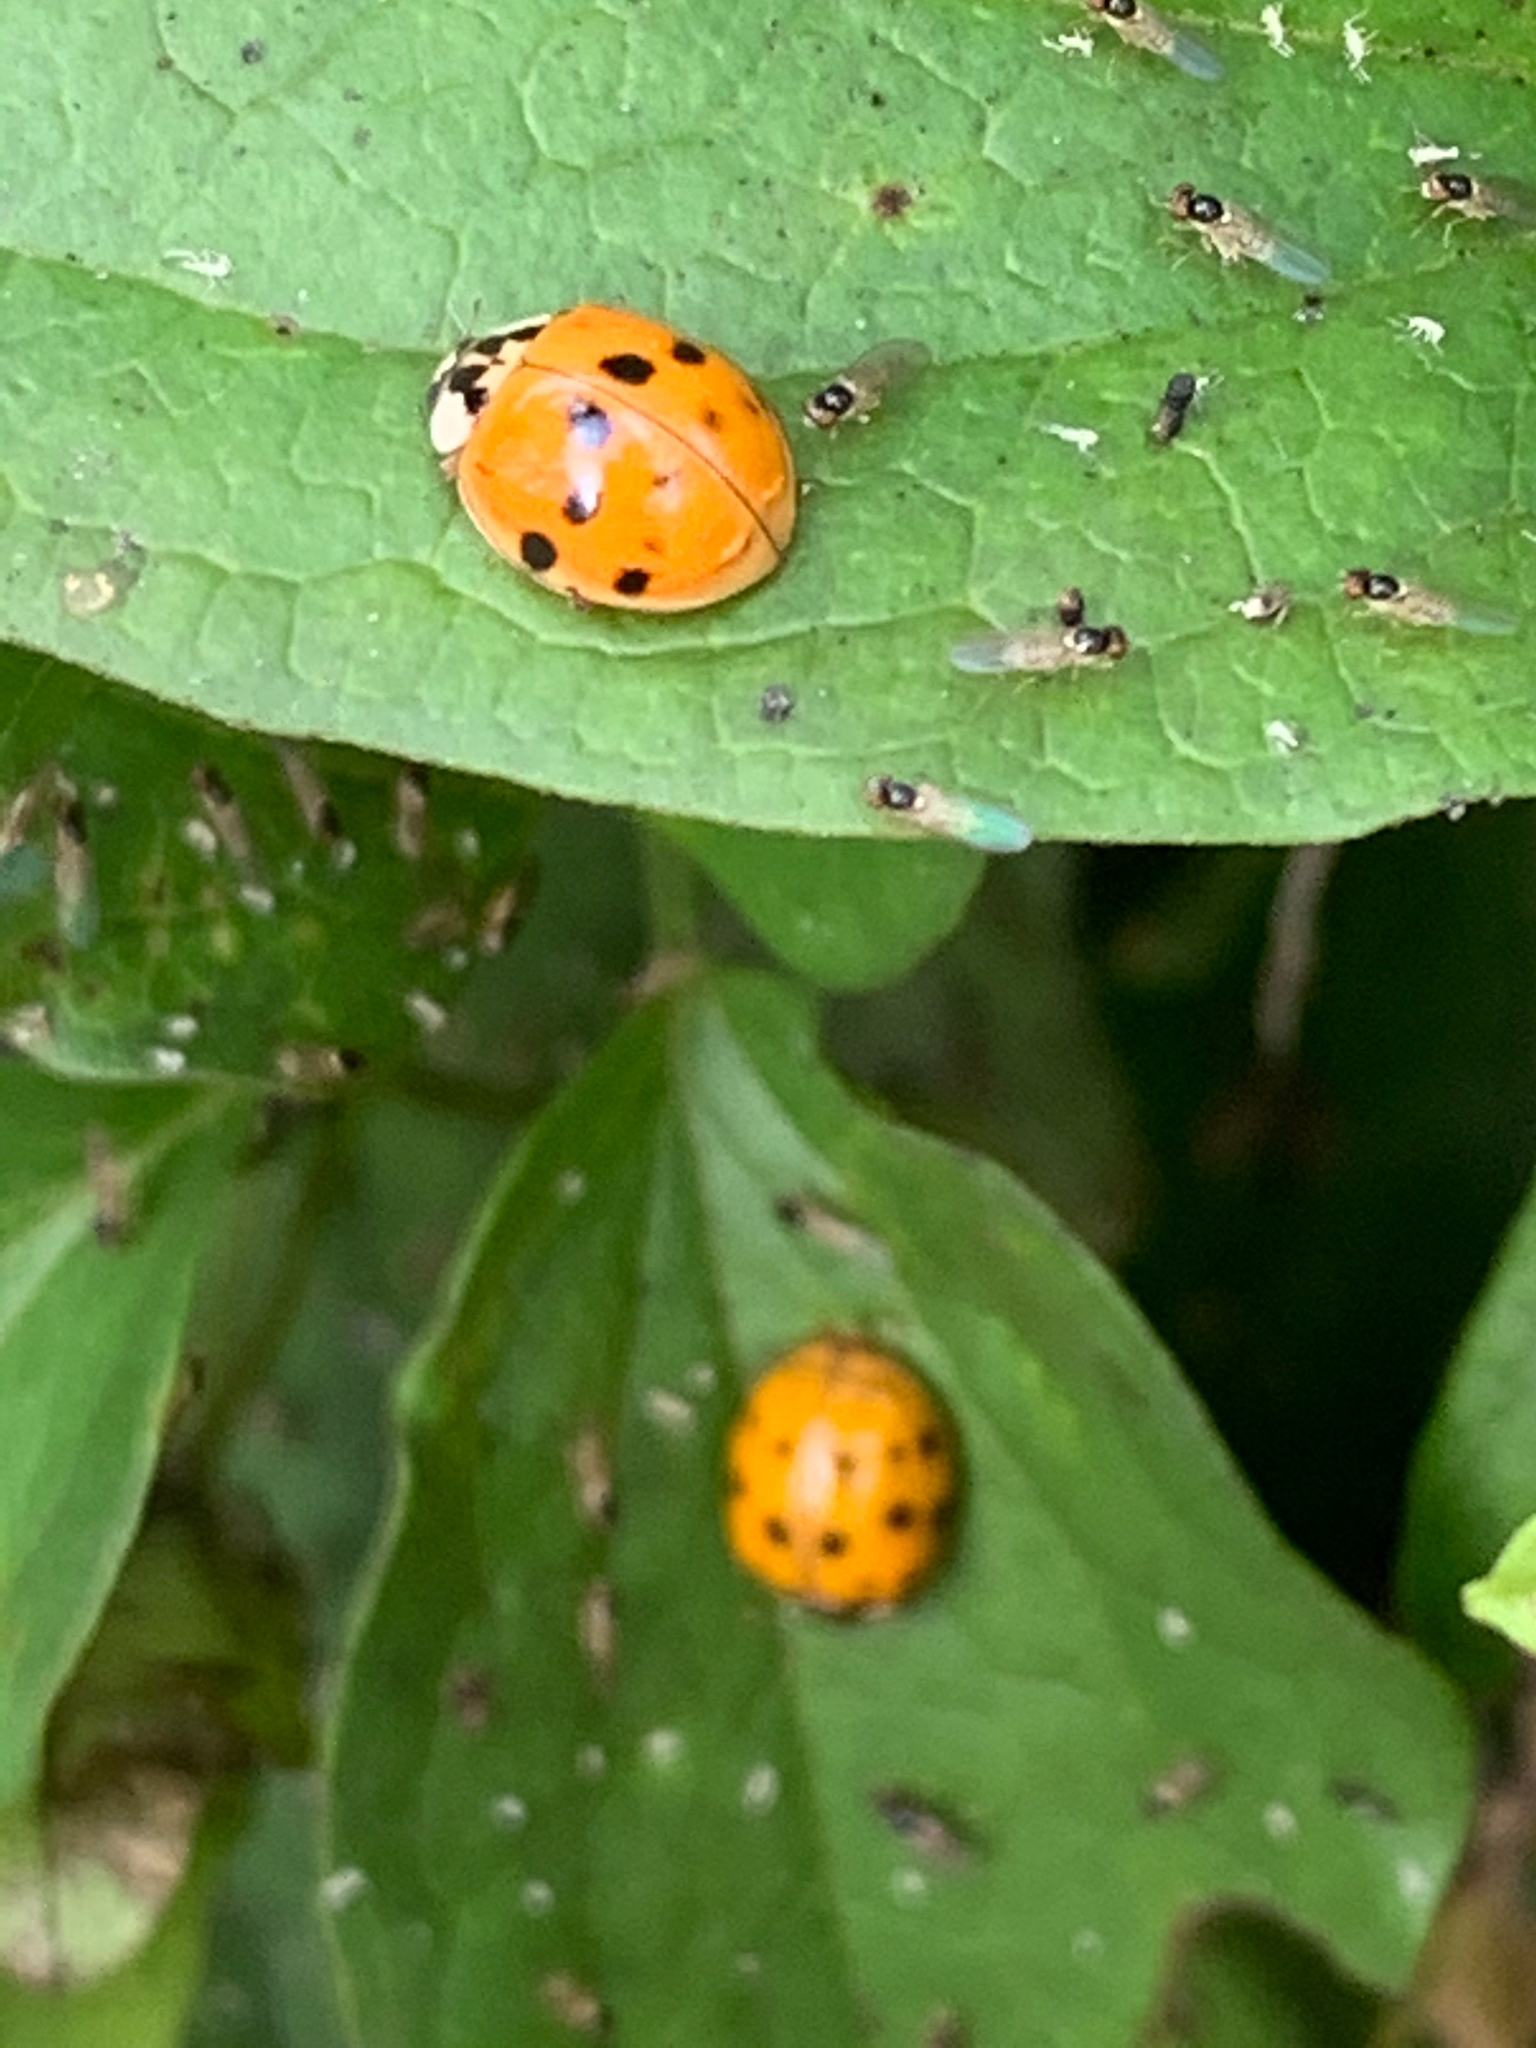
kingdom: Animalia
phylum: Arthropoda
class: Insecta
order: Coleoptera
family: Coccinellidae
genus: Harmonia
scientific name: Harmonia axyridis
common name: Harlequin ladybird
